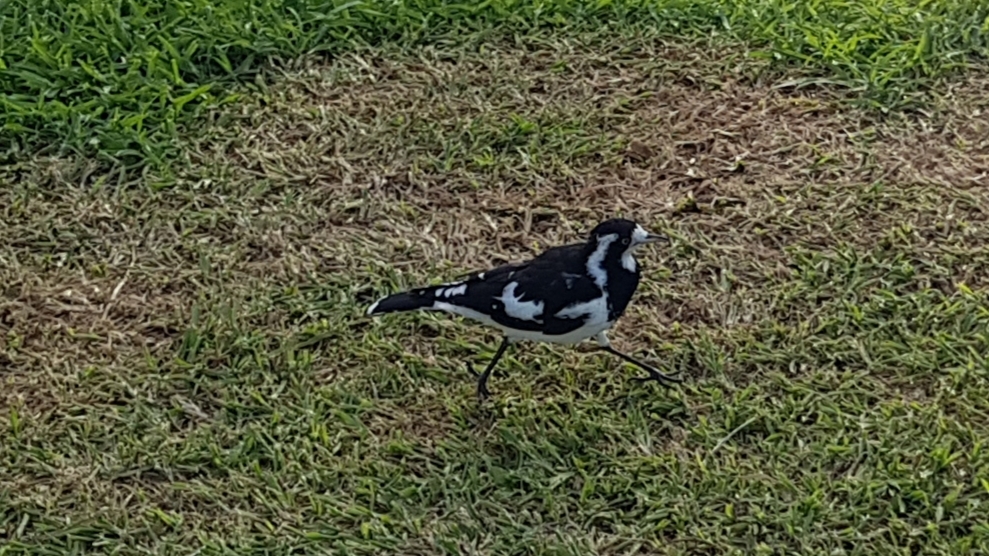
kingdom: Animalia
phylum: Chordata
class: Aves
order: Passeriformes
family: Monarchidae
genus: Grallina
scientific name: Grallina cyanoleuca
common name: Magpie-lark
